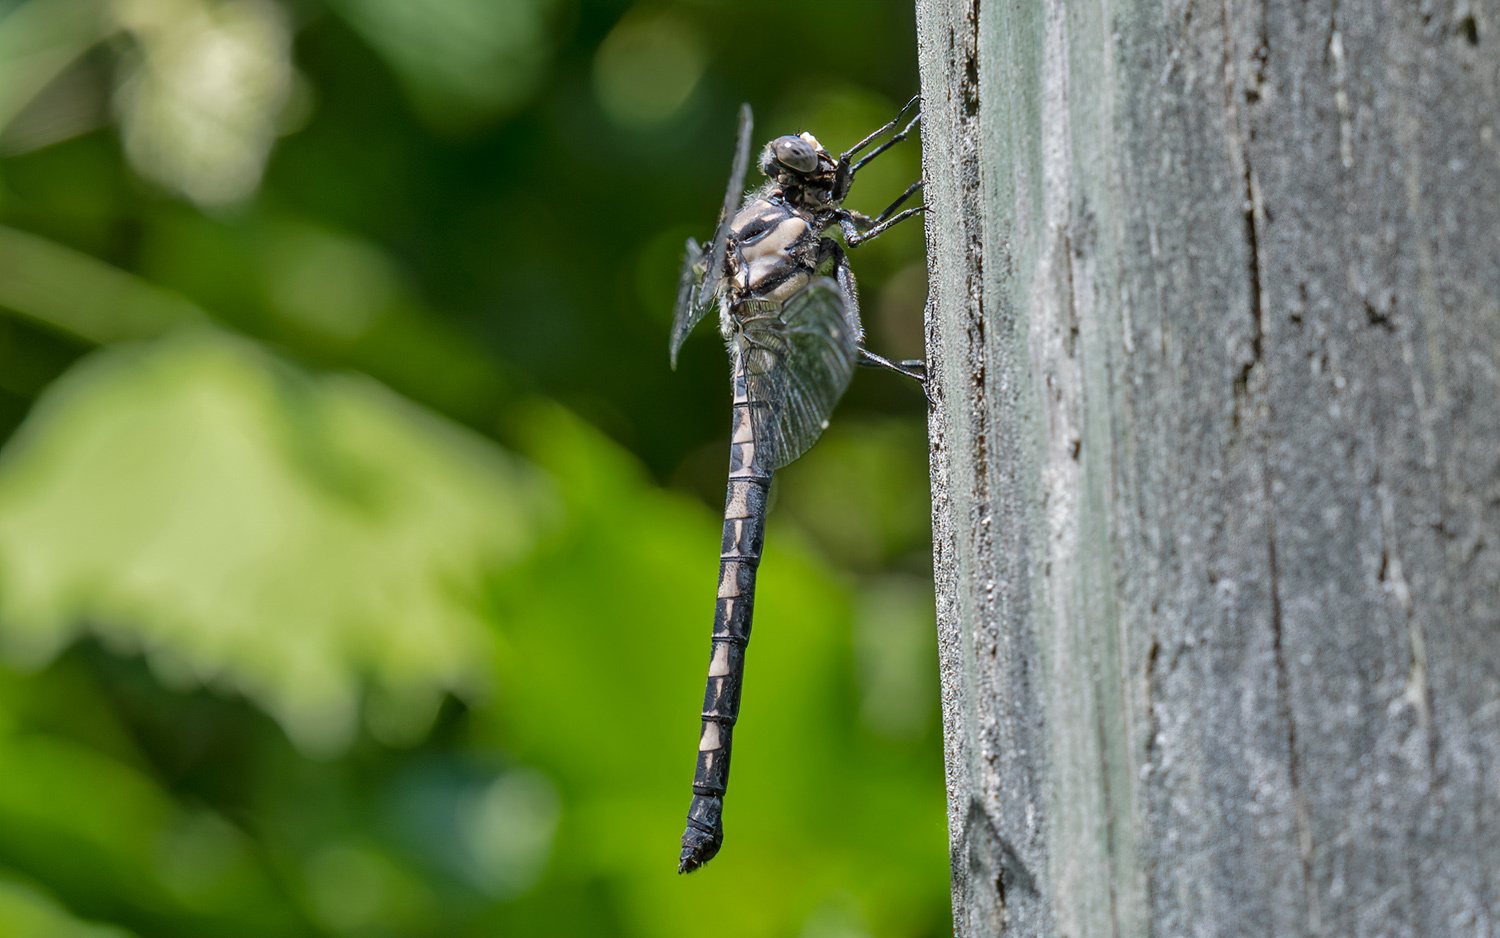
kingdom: Animalia
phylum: Arthropoda
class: Insecta
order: Odonata
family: Petaluridae
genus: Tachopteryx
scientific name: Tachopteryx thoreyi
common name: Gray petaltail
